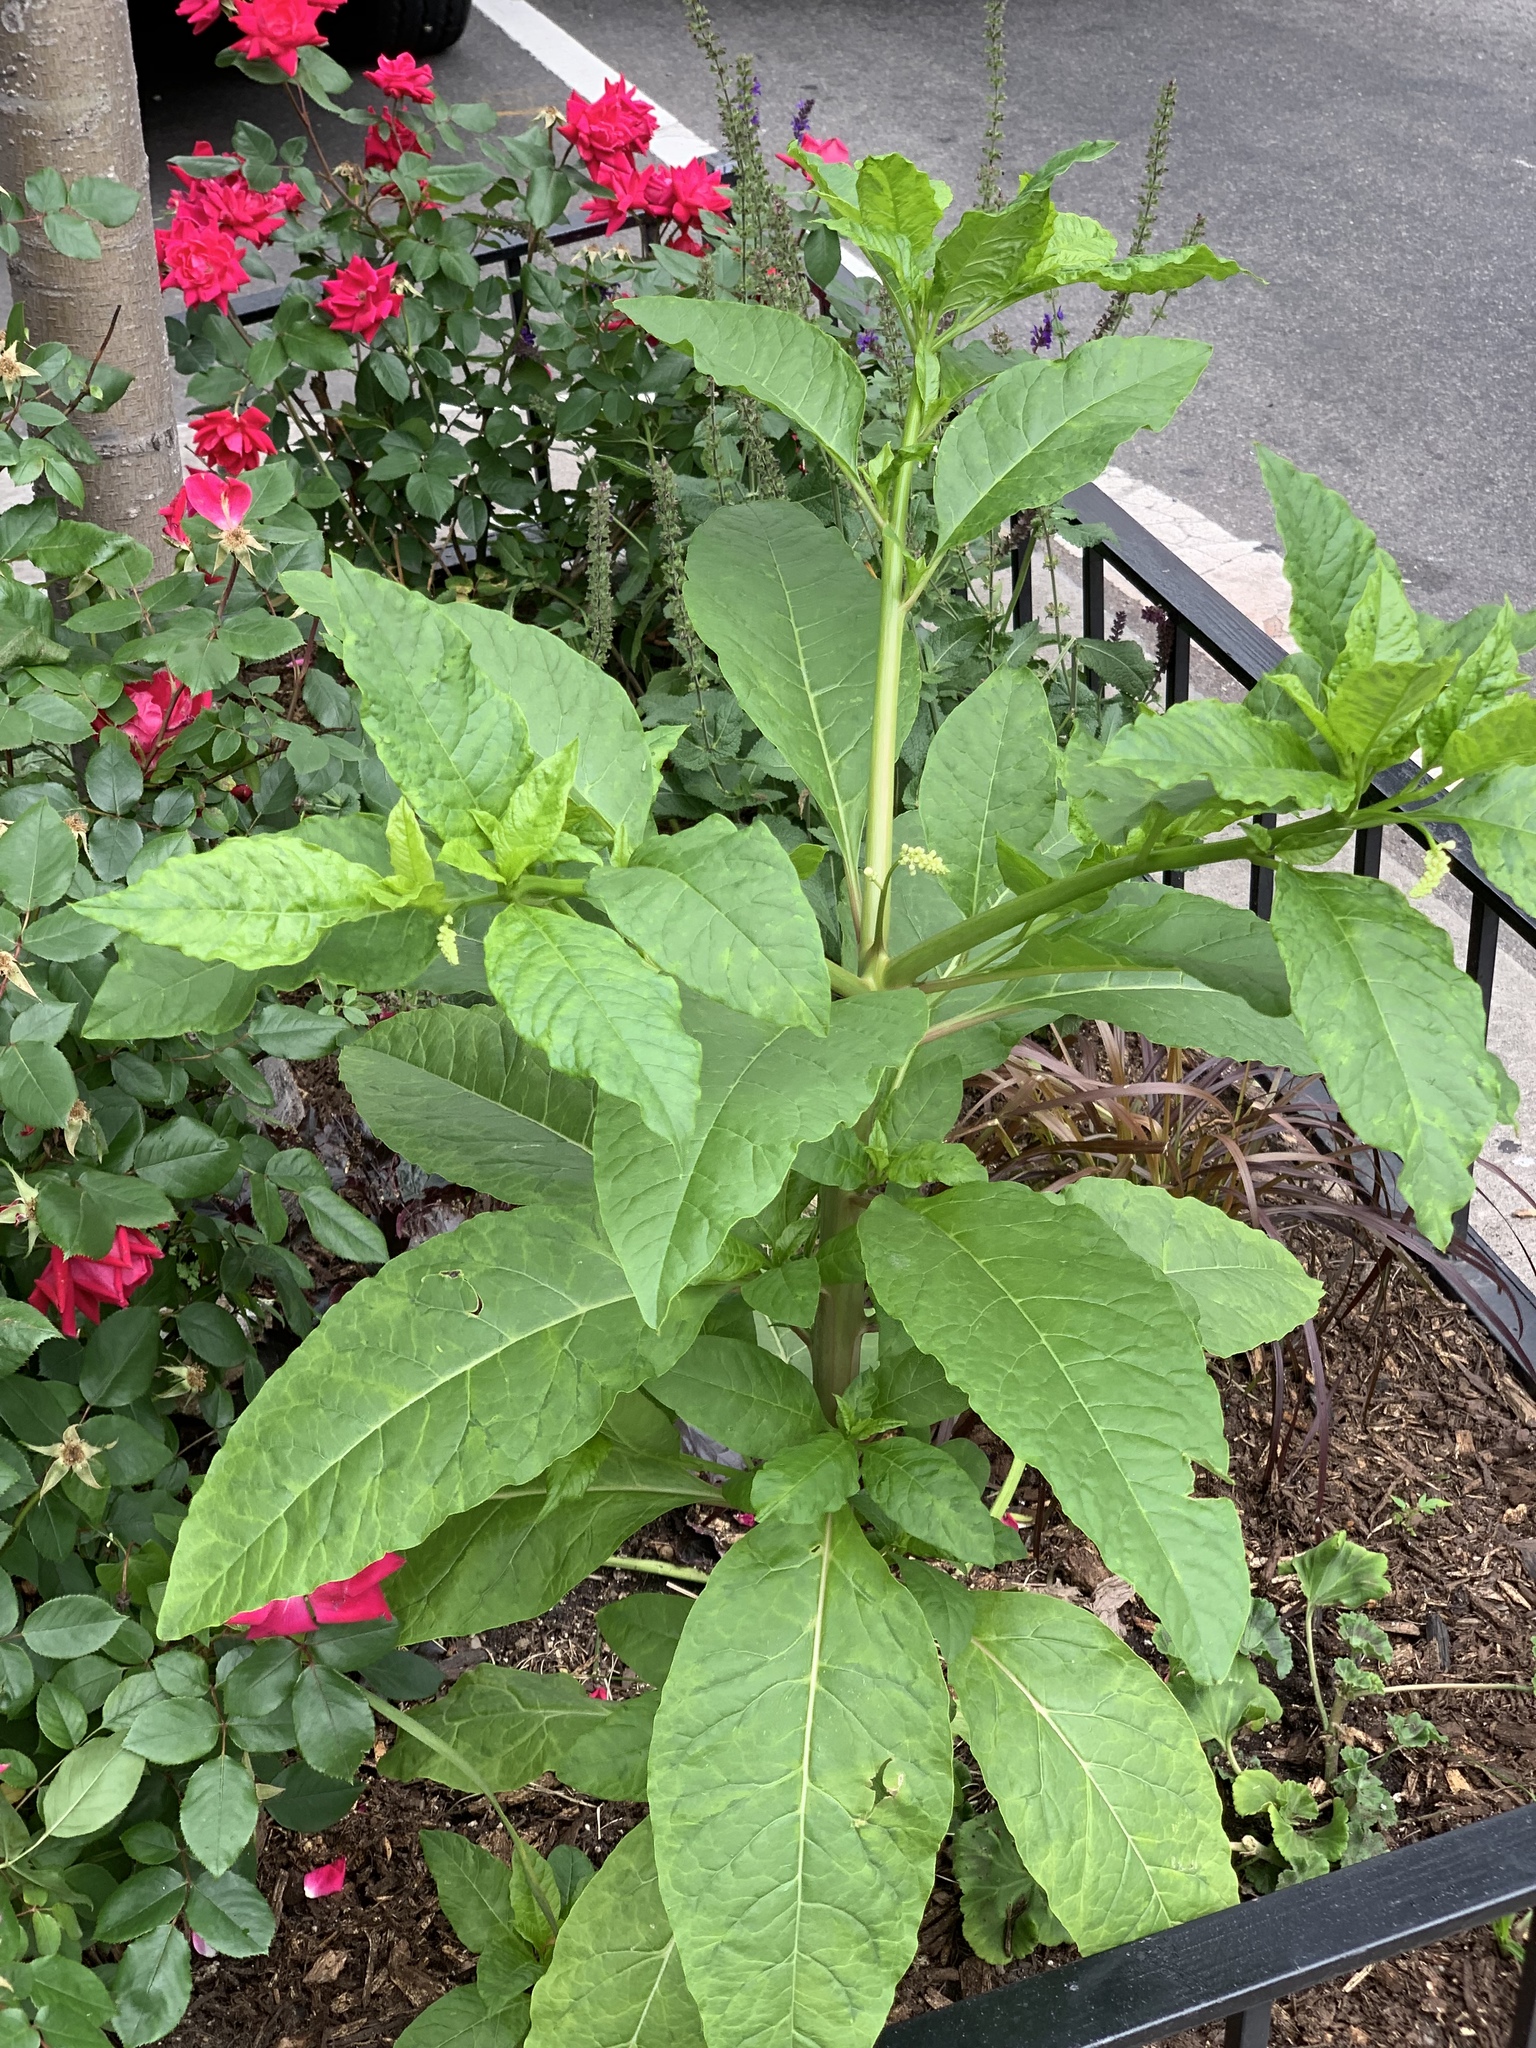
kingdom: Plantae
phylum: Tracheophyta
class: Magnoliopsida
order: Caryophyllales
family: Phytolaccaceae
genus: Phytolacca
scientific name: Phytolacca americana
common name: American pokeweed
